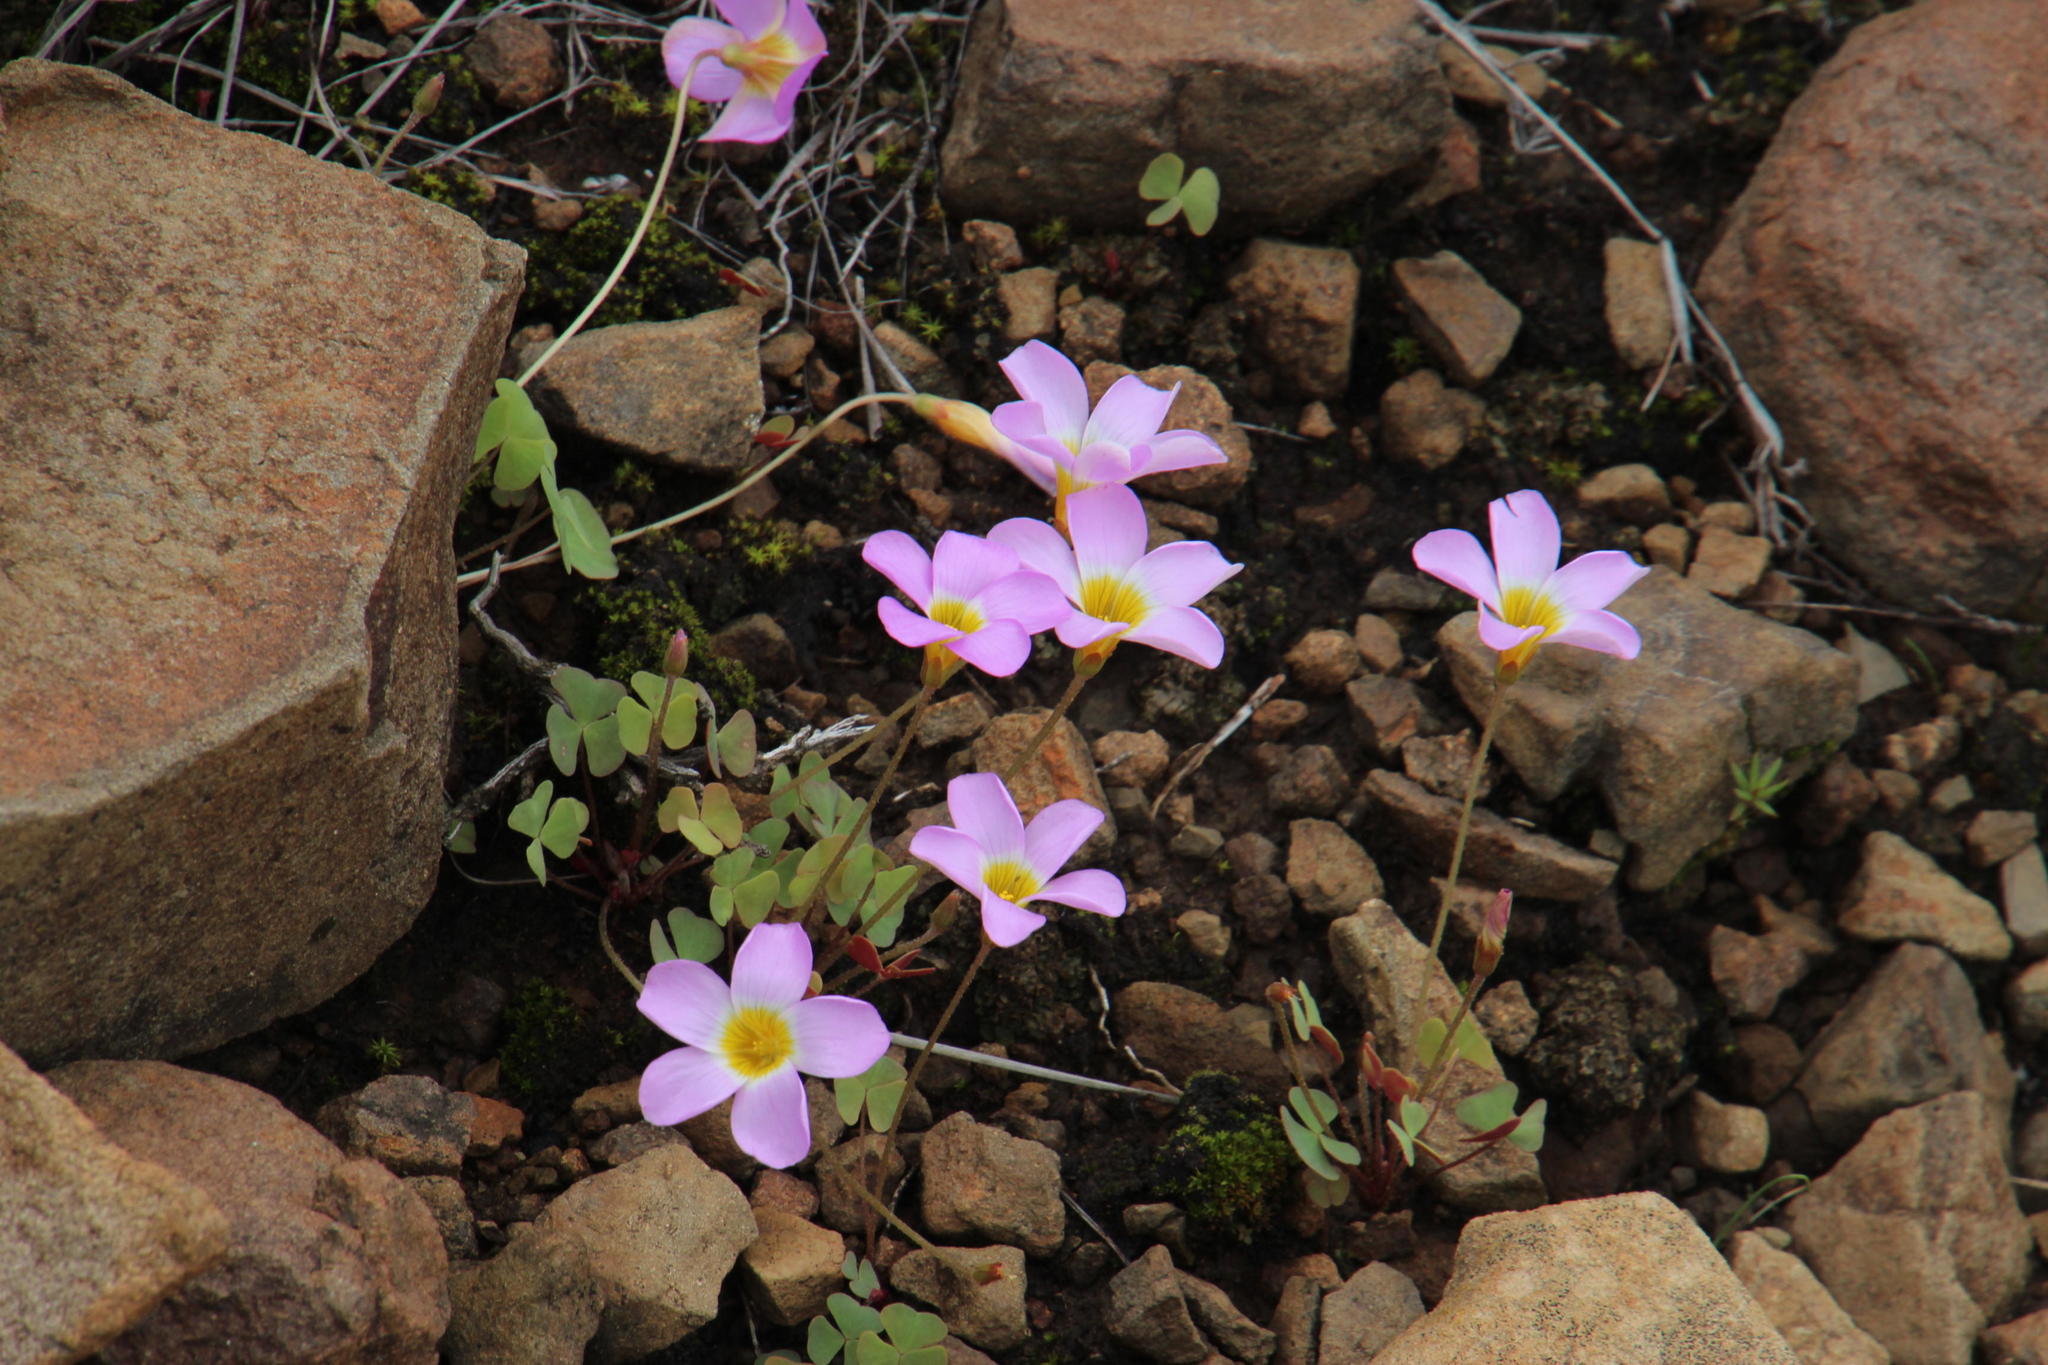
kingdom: Plantae
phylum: Tracheophyta
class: Magnoliopsida
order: Oxalidales
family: Oxalidaceae
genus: Oxalis
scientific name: Oxalis obliquifolia
